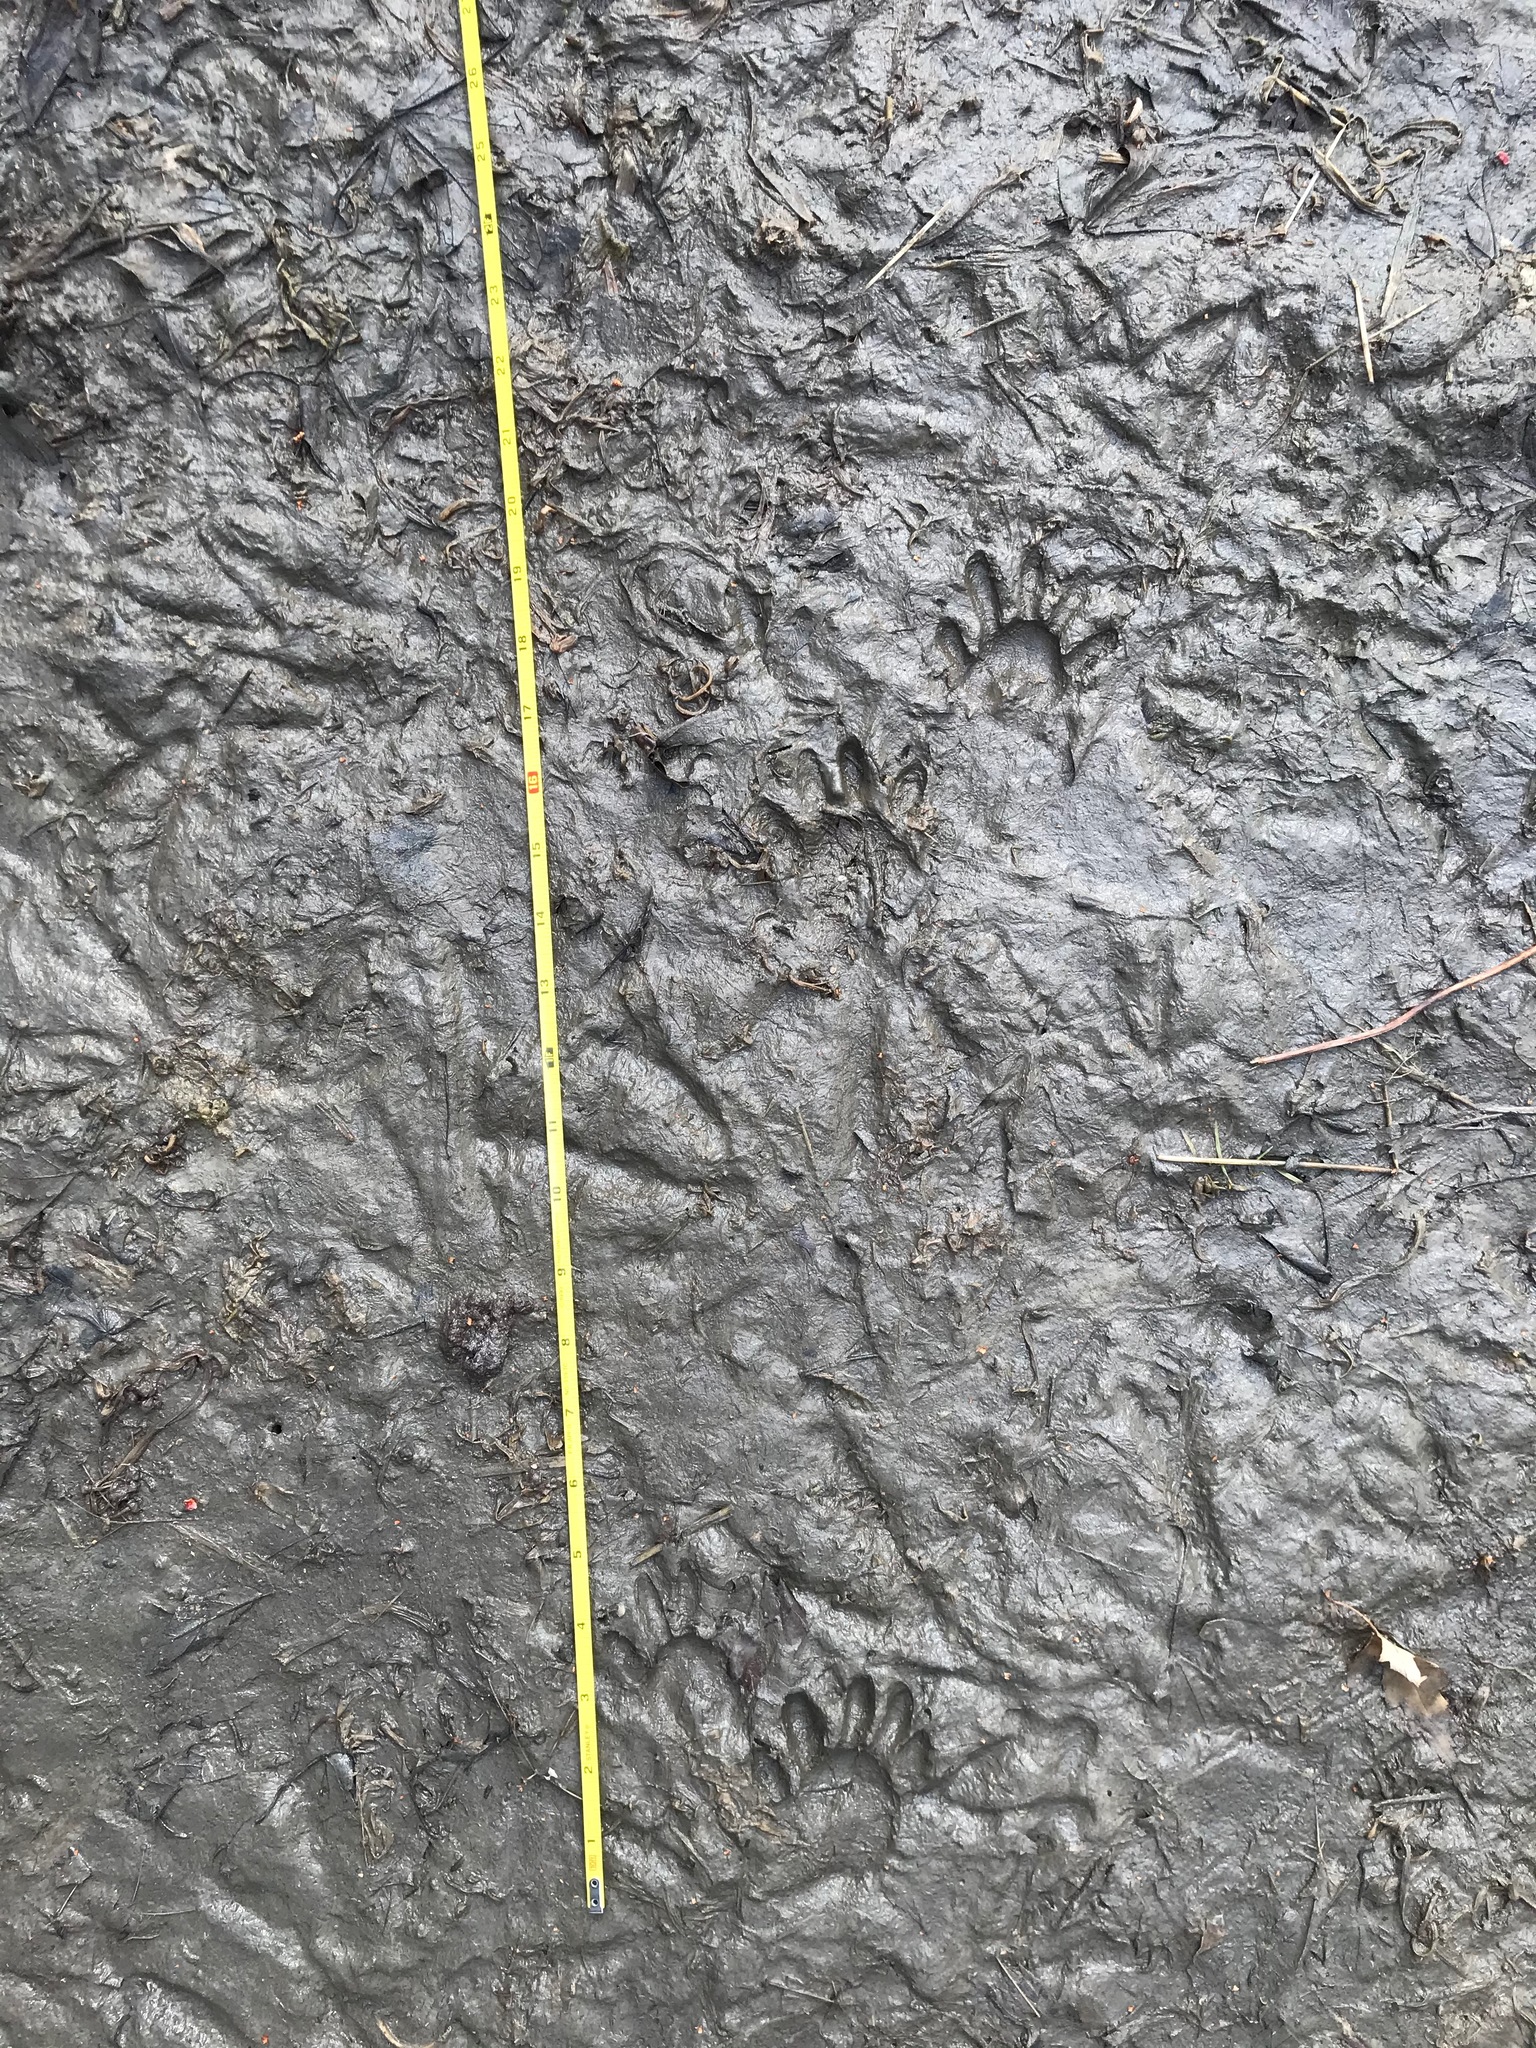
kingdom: Animalia
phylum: Chordata
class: Mammalia
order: Carnivora
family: Procyonidae
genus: Procyon
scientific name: Procyon lotor
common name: Raccoon
